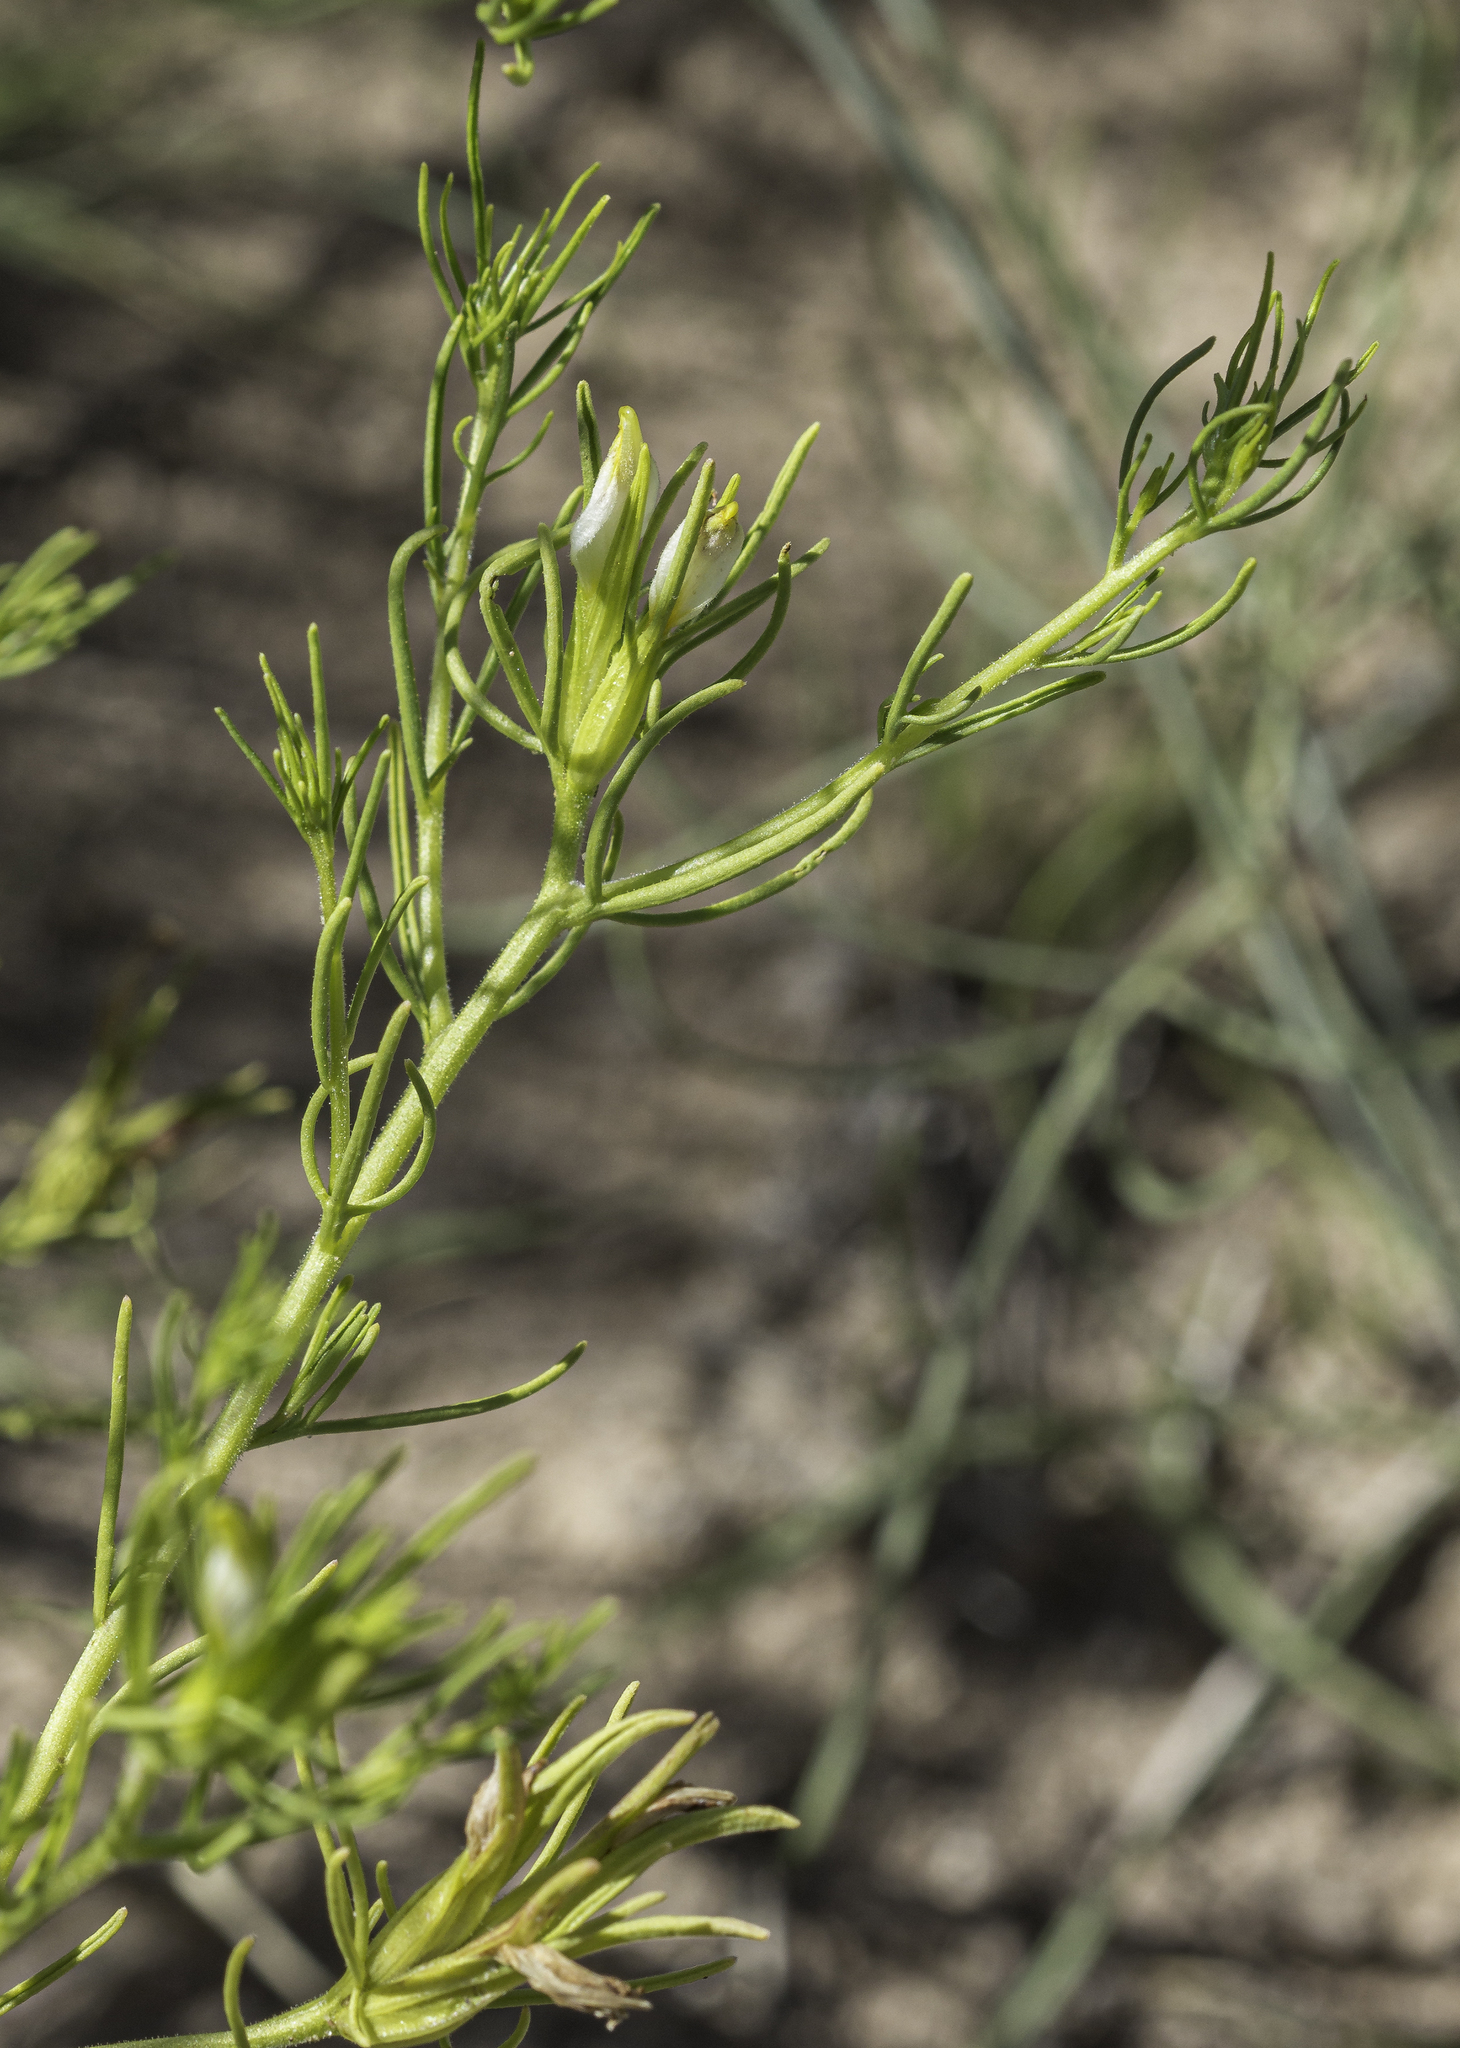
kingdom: Plantae
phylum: Tracheophyta
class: Magnoliopsida
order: Lamiales
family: Orobanchaceae
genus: Cordylanthus
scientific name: Cordylanthus wrightii
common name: Wright's birdsbeak
